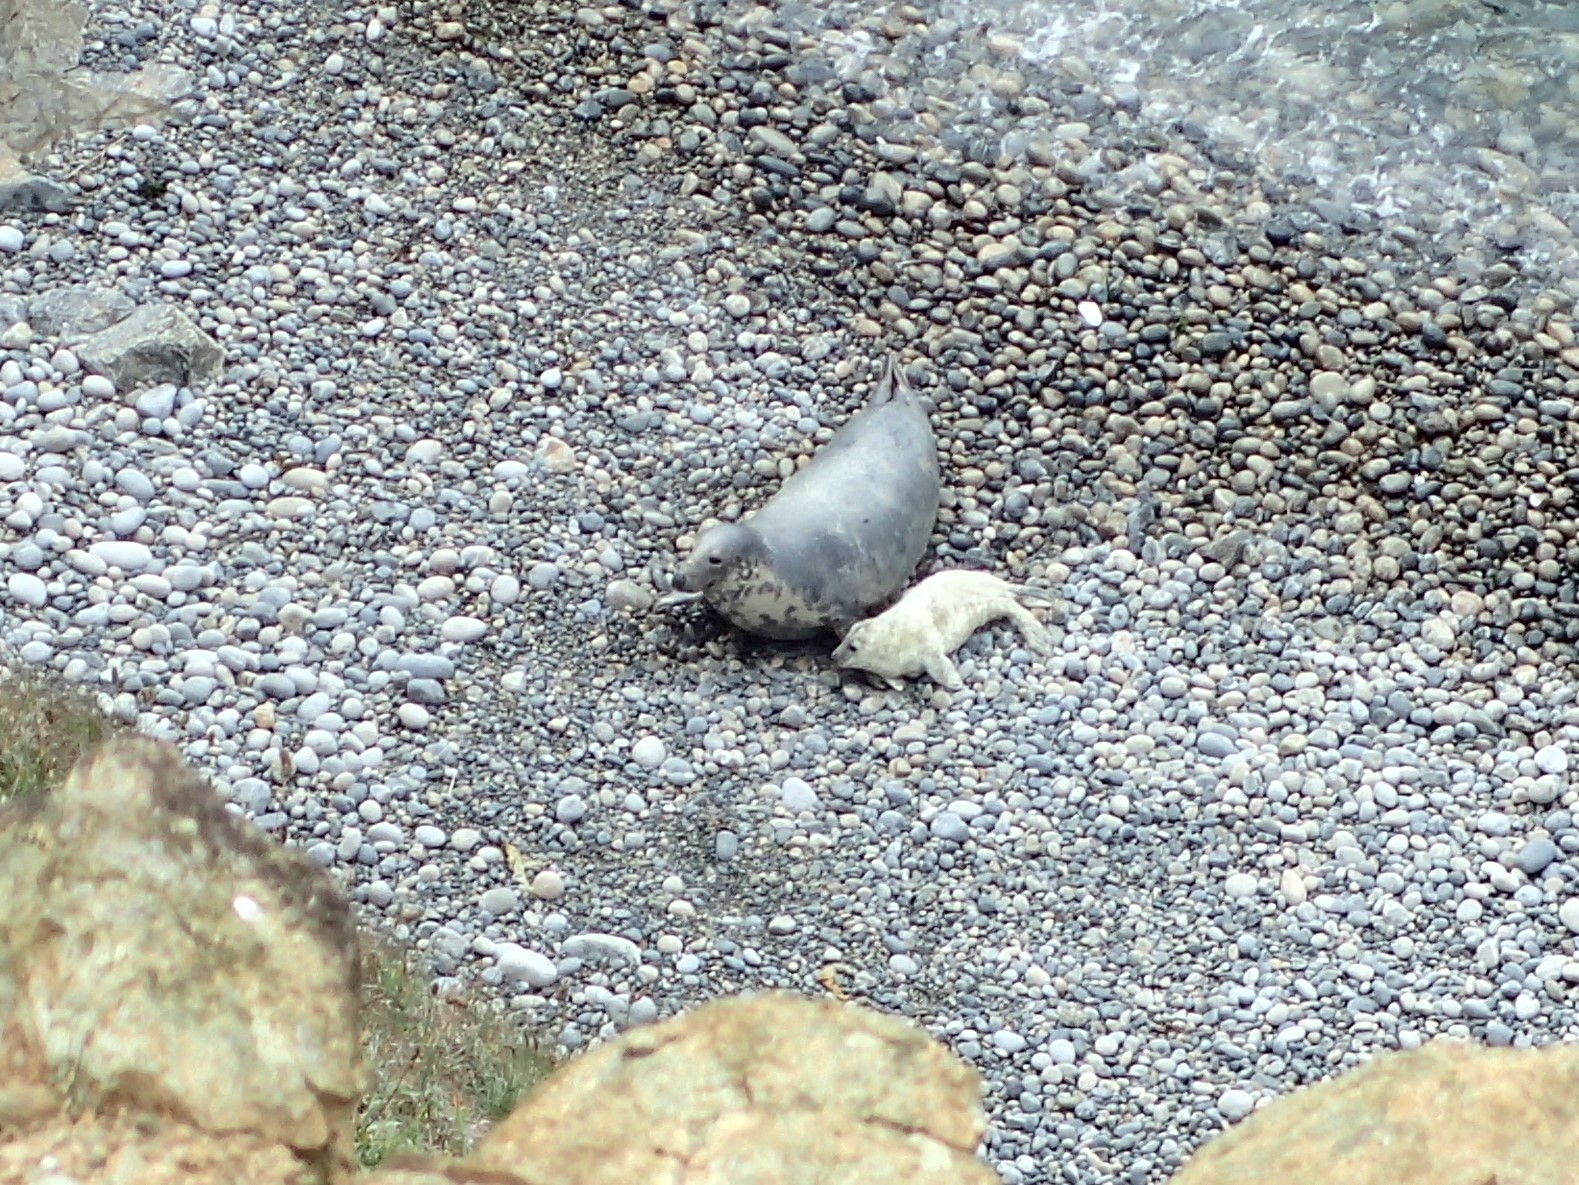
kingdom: Animalia
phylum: Chordata
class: Mammalia
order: Carnivora
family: Phocidae
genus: Halichoerus
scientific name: Halichoerus grypus
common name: Grey seal
